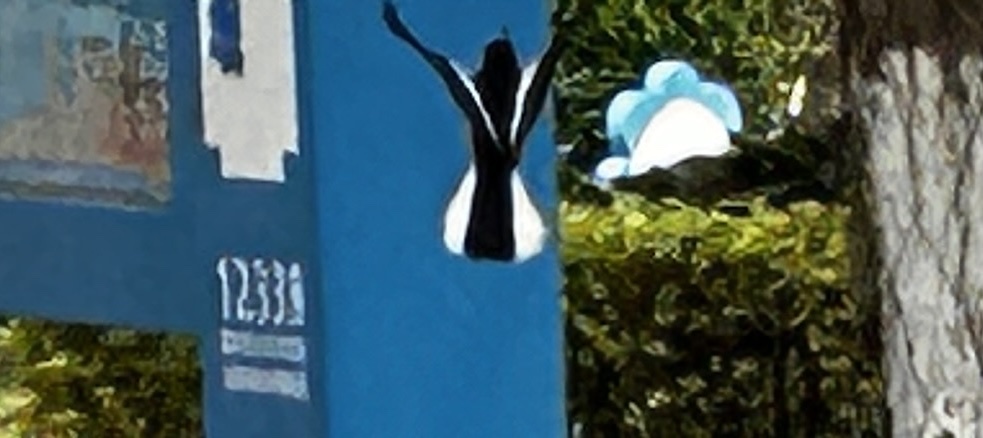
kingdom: Animalia
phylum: Chordata
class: Aves
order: Passeriformes
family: Muscicapidae
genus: Copsychus
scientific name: Copsychus saularis
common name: Oriental magpie-robin
